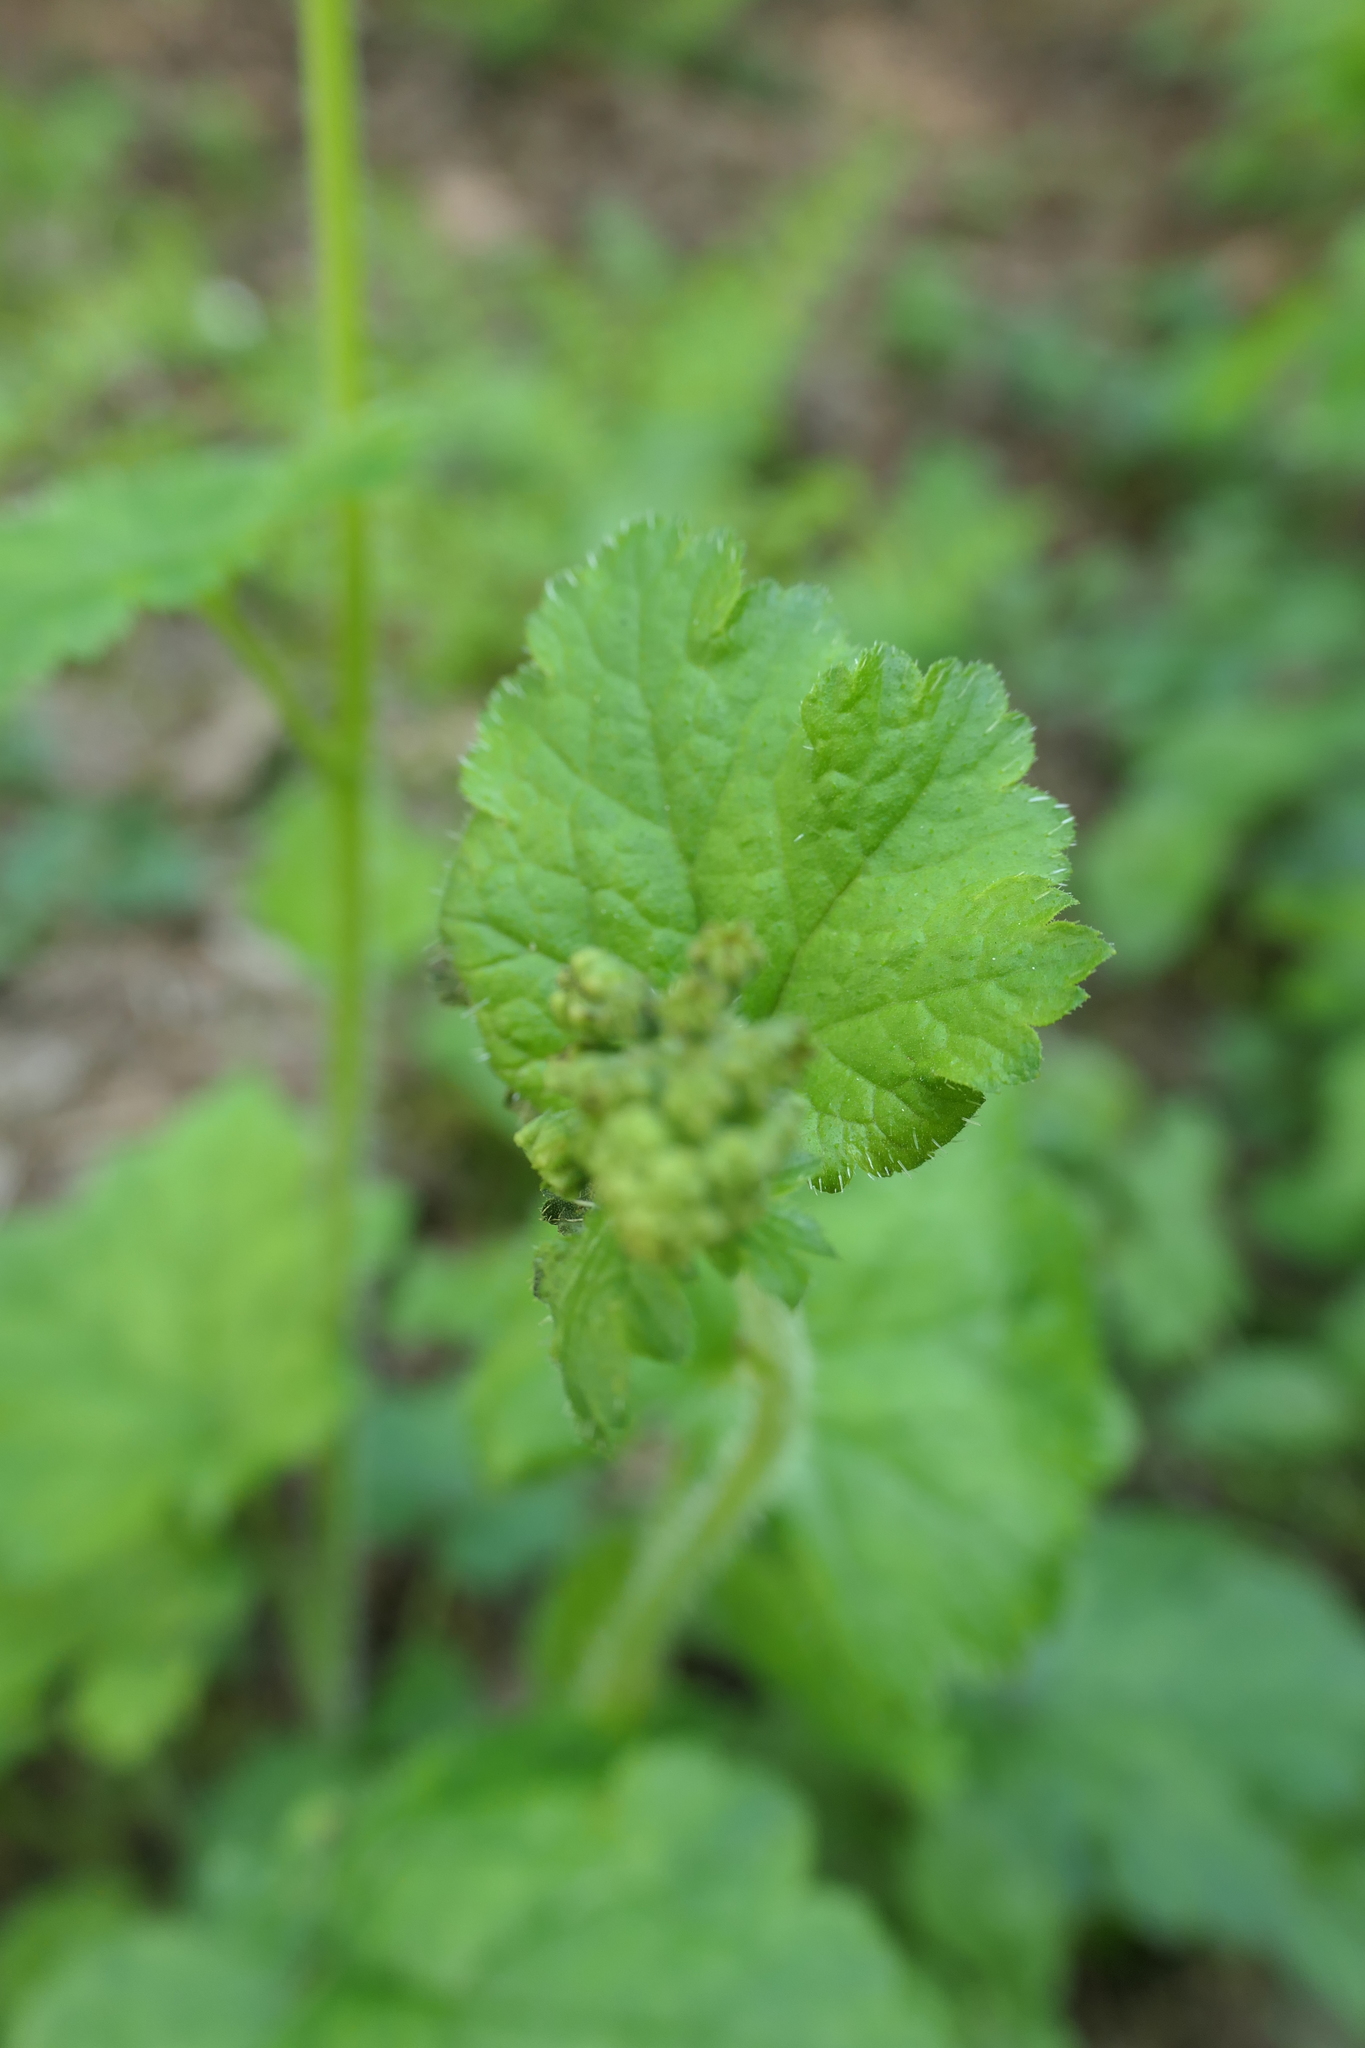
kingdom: Plantae
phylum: Tracheophyta
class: Magnoliopsida
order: Saxifragales
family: Saxifragaceae
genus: Tellima
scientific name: Tellima grandiflora
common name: Fringecups
